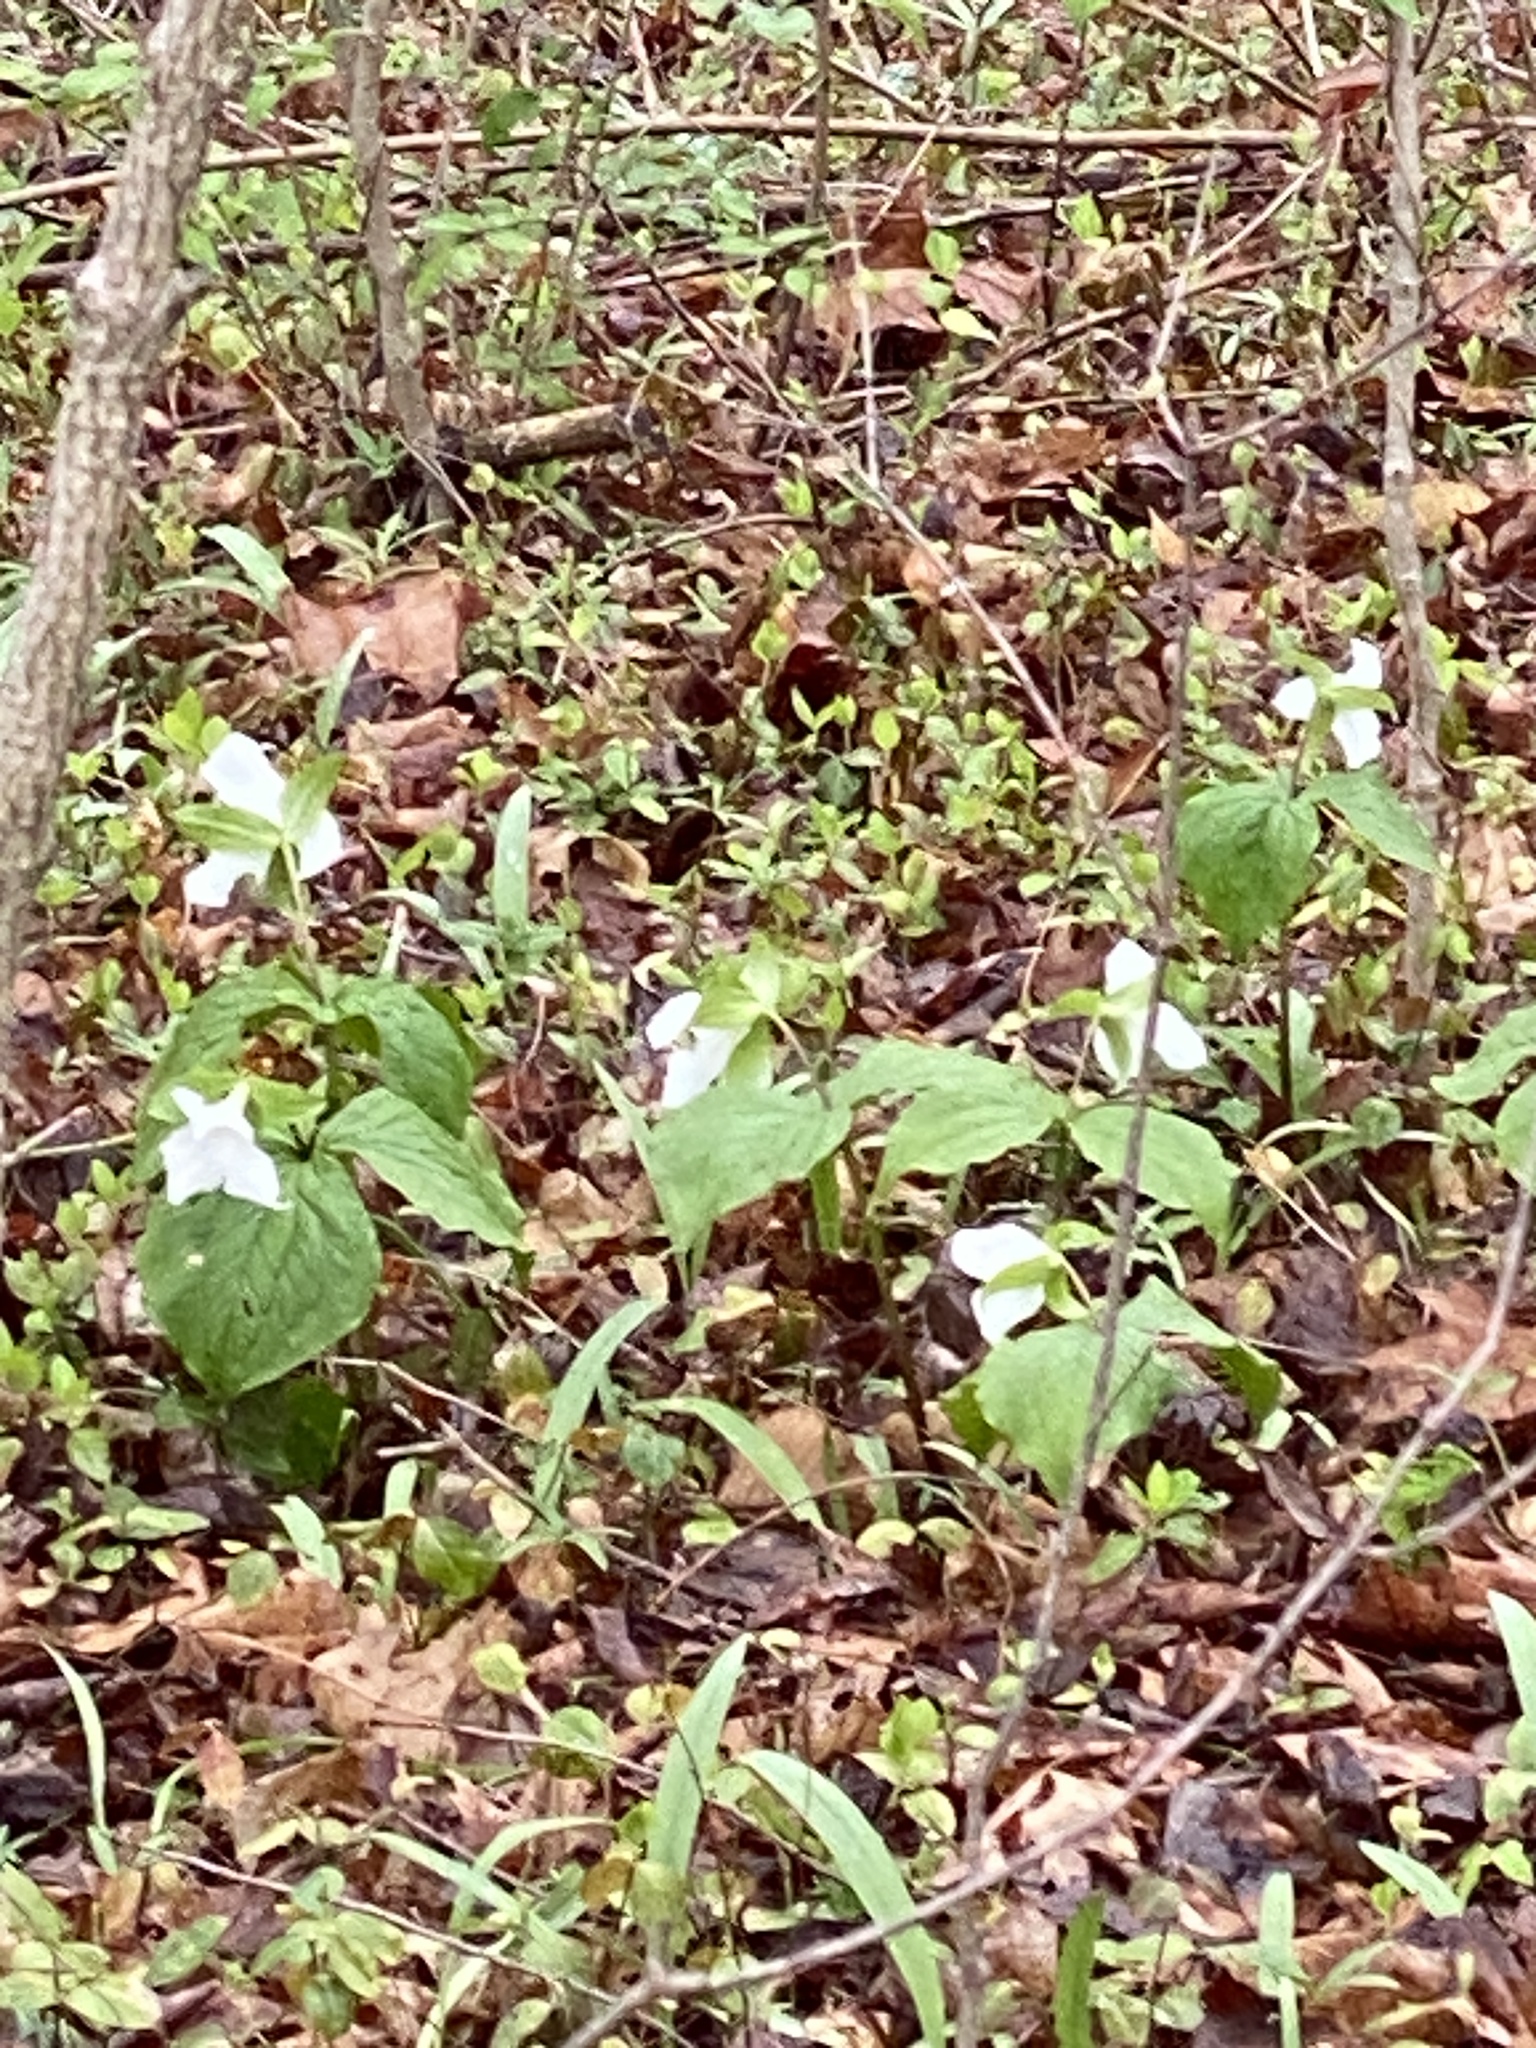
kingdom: Plantae
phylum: Tracheophyta
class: Liliopsida
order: Liliales
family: Melanthiaceae
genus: Trillium
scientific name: Trillium grandiflorum
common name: Great white trillium
